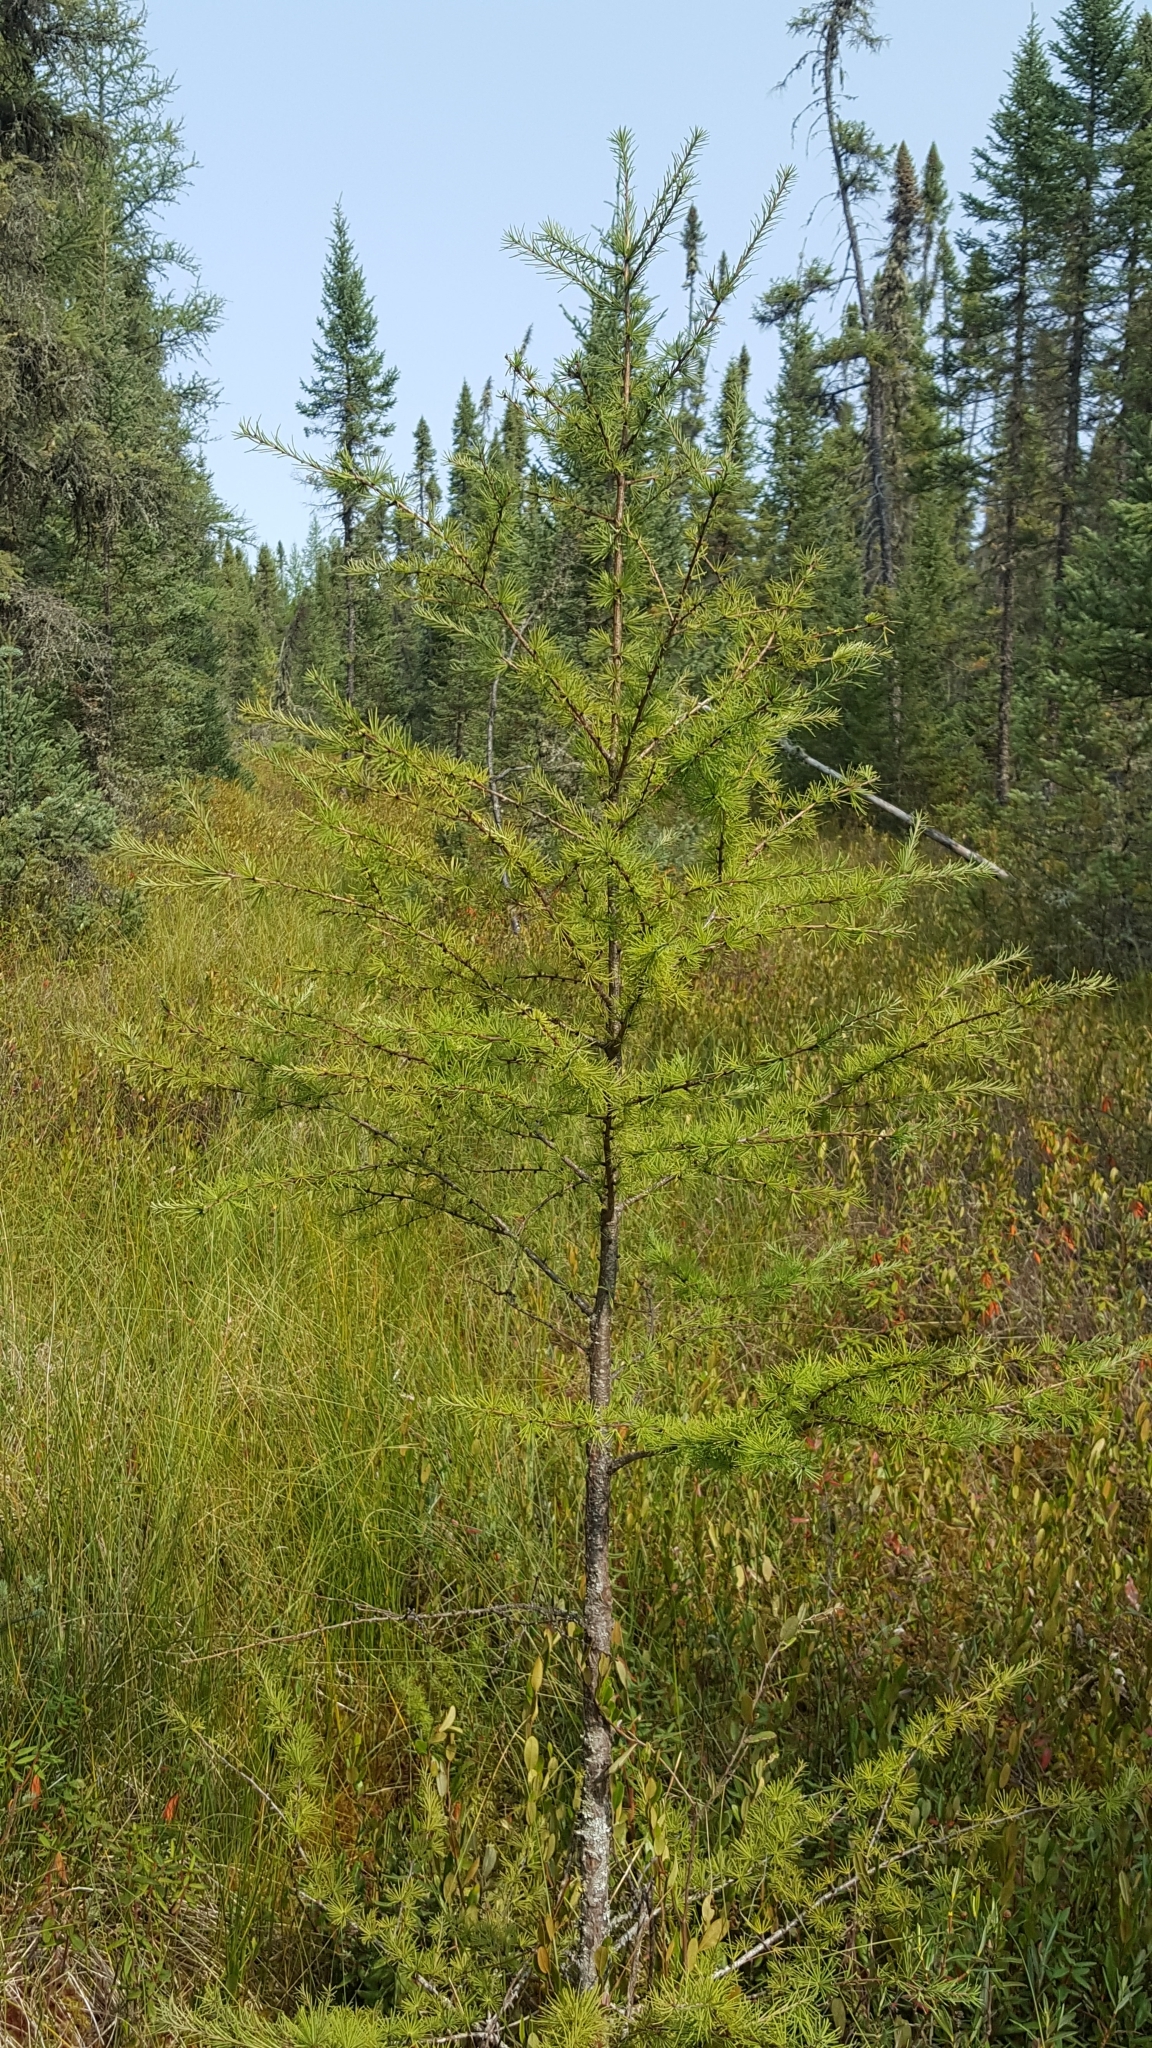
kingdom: Plantae
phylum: Tracheophyta
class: Pinopsida
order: Pinales
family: Pinaceae
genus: Larix
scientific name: Larix laricina
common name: American larch
